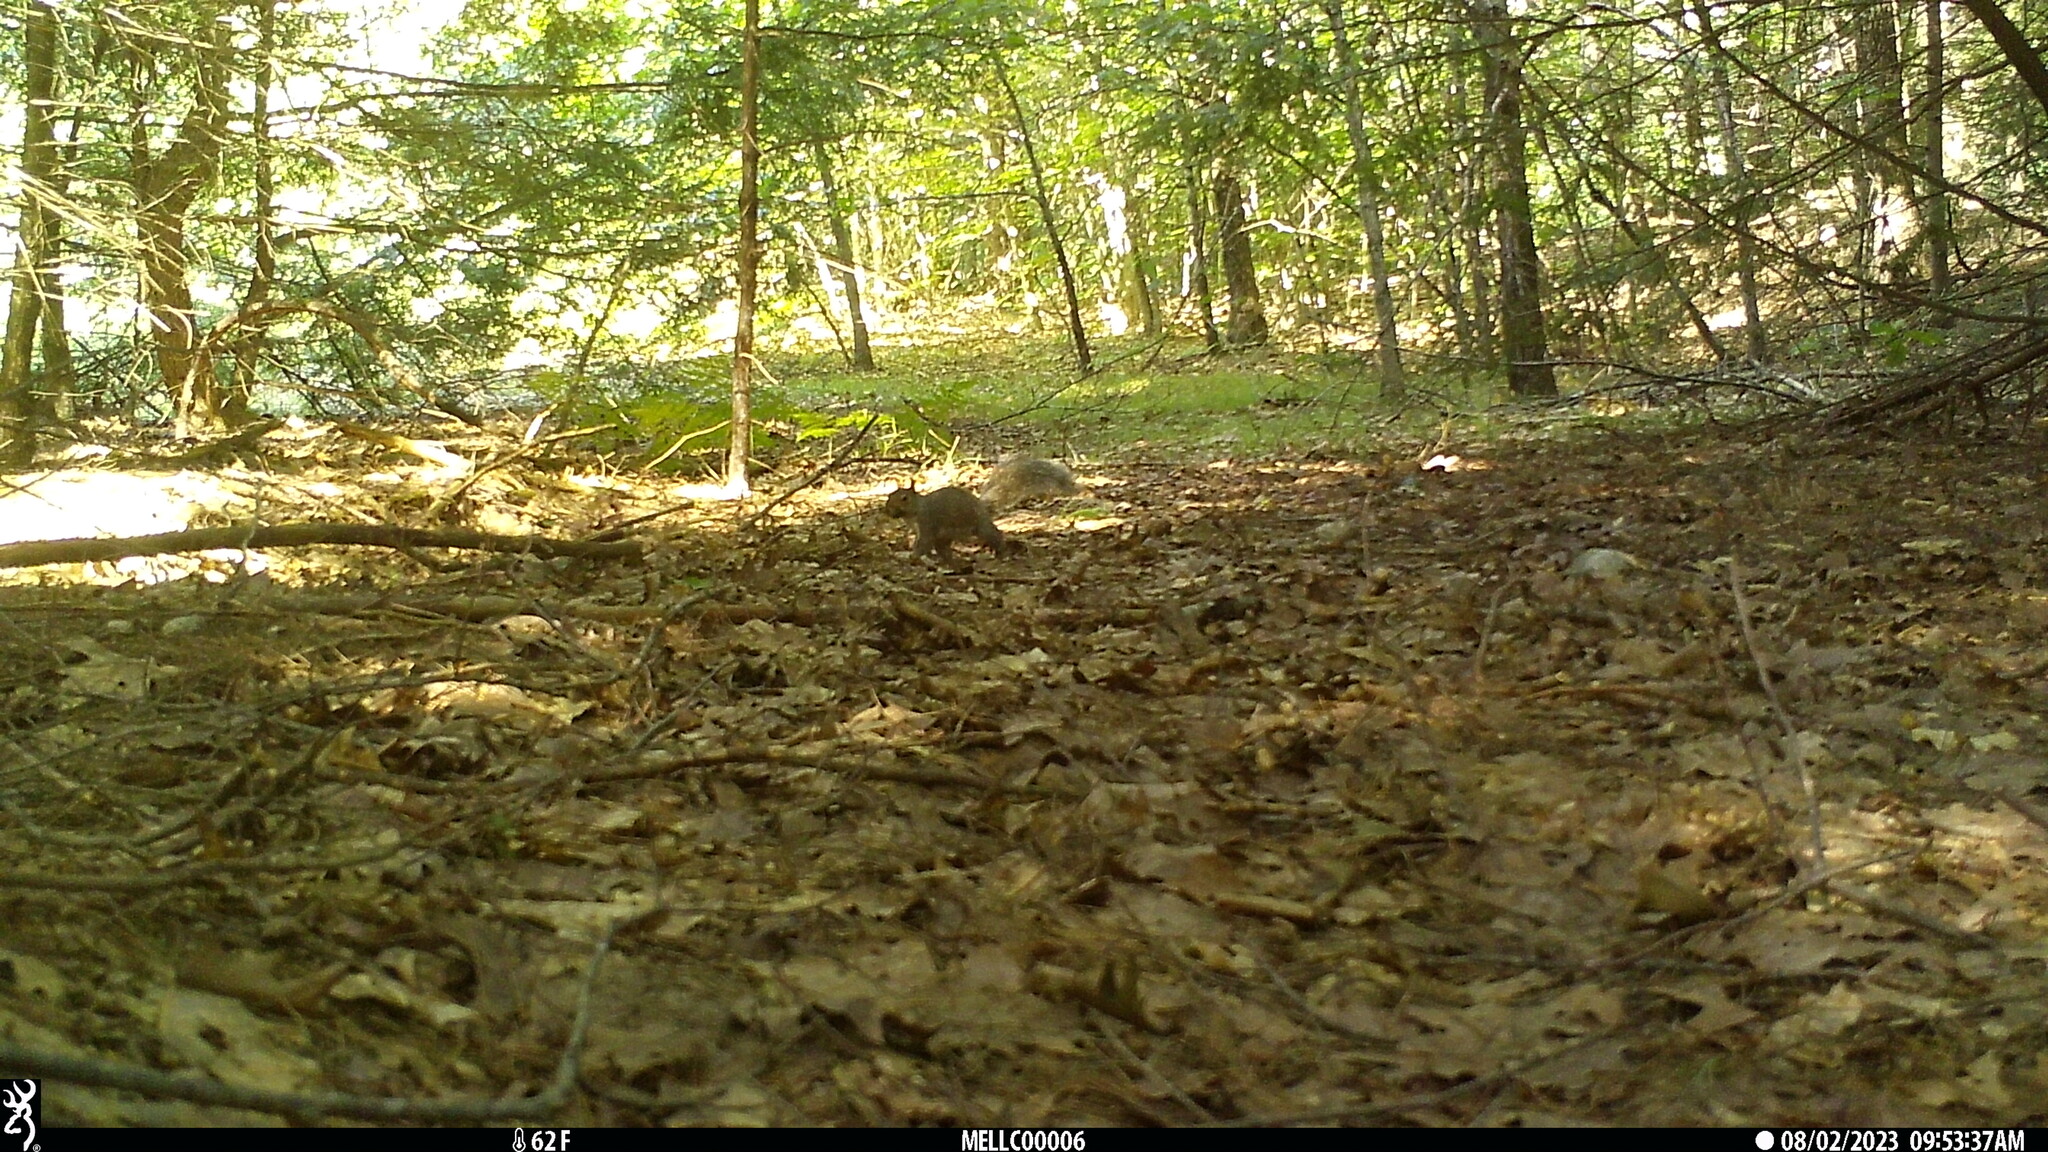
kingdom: Animalia
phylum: Chordata
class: Mammalia
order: Rodentia
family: Sciuridae
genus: Sciurus
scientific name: Sciurus carolinensis
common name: Eastern gray squirrel
